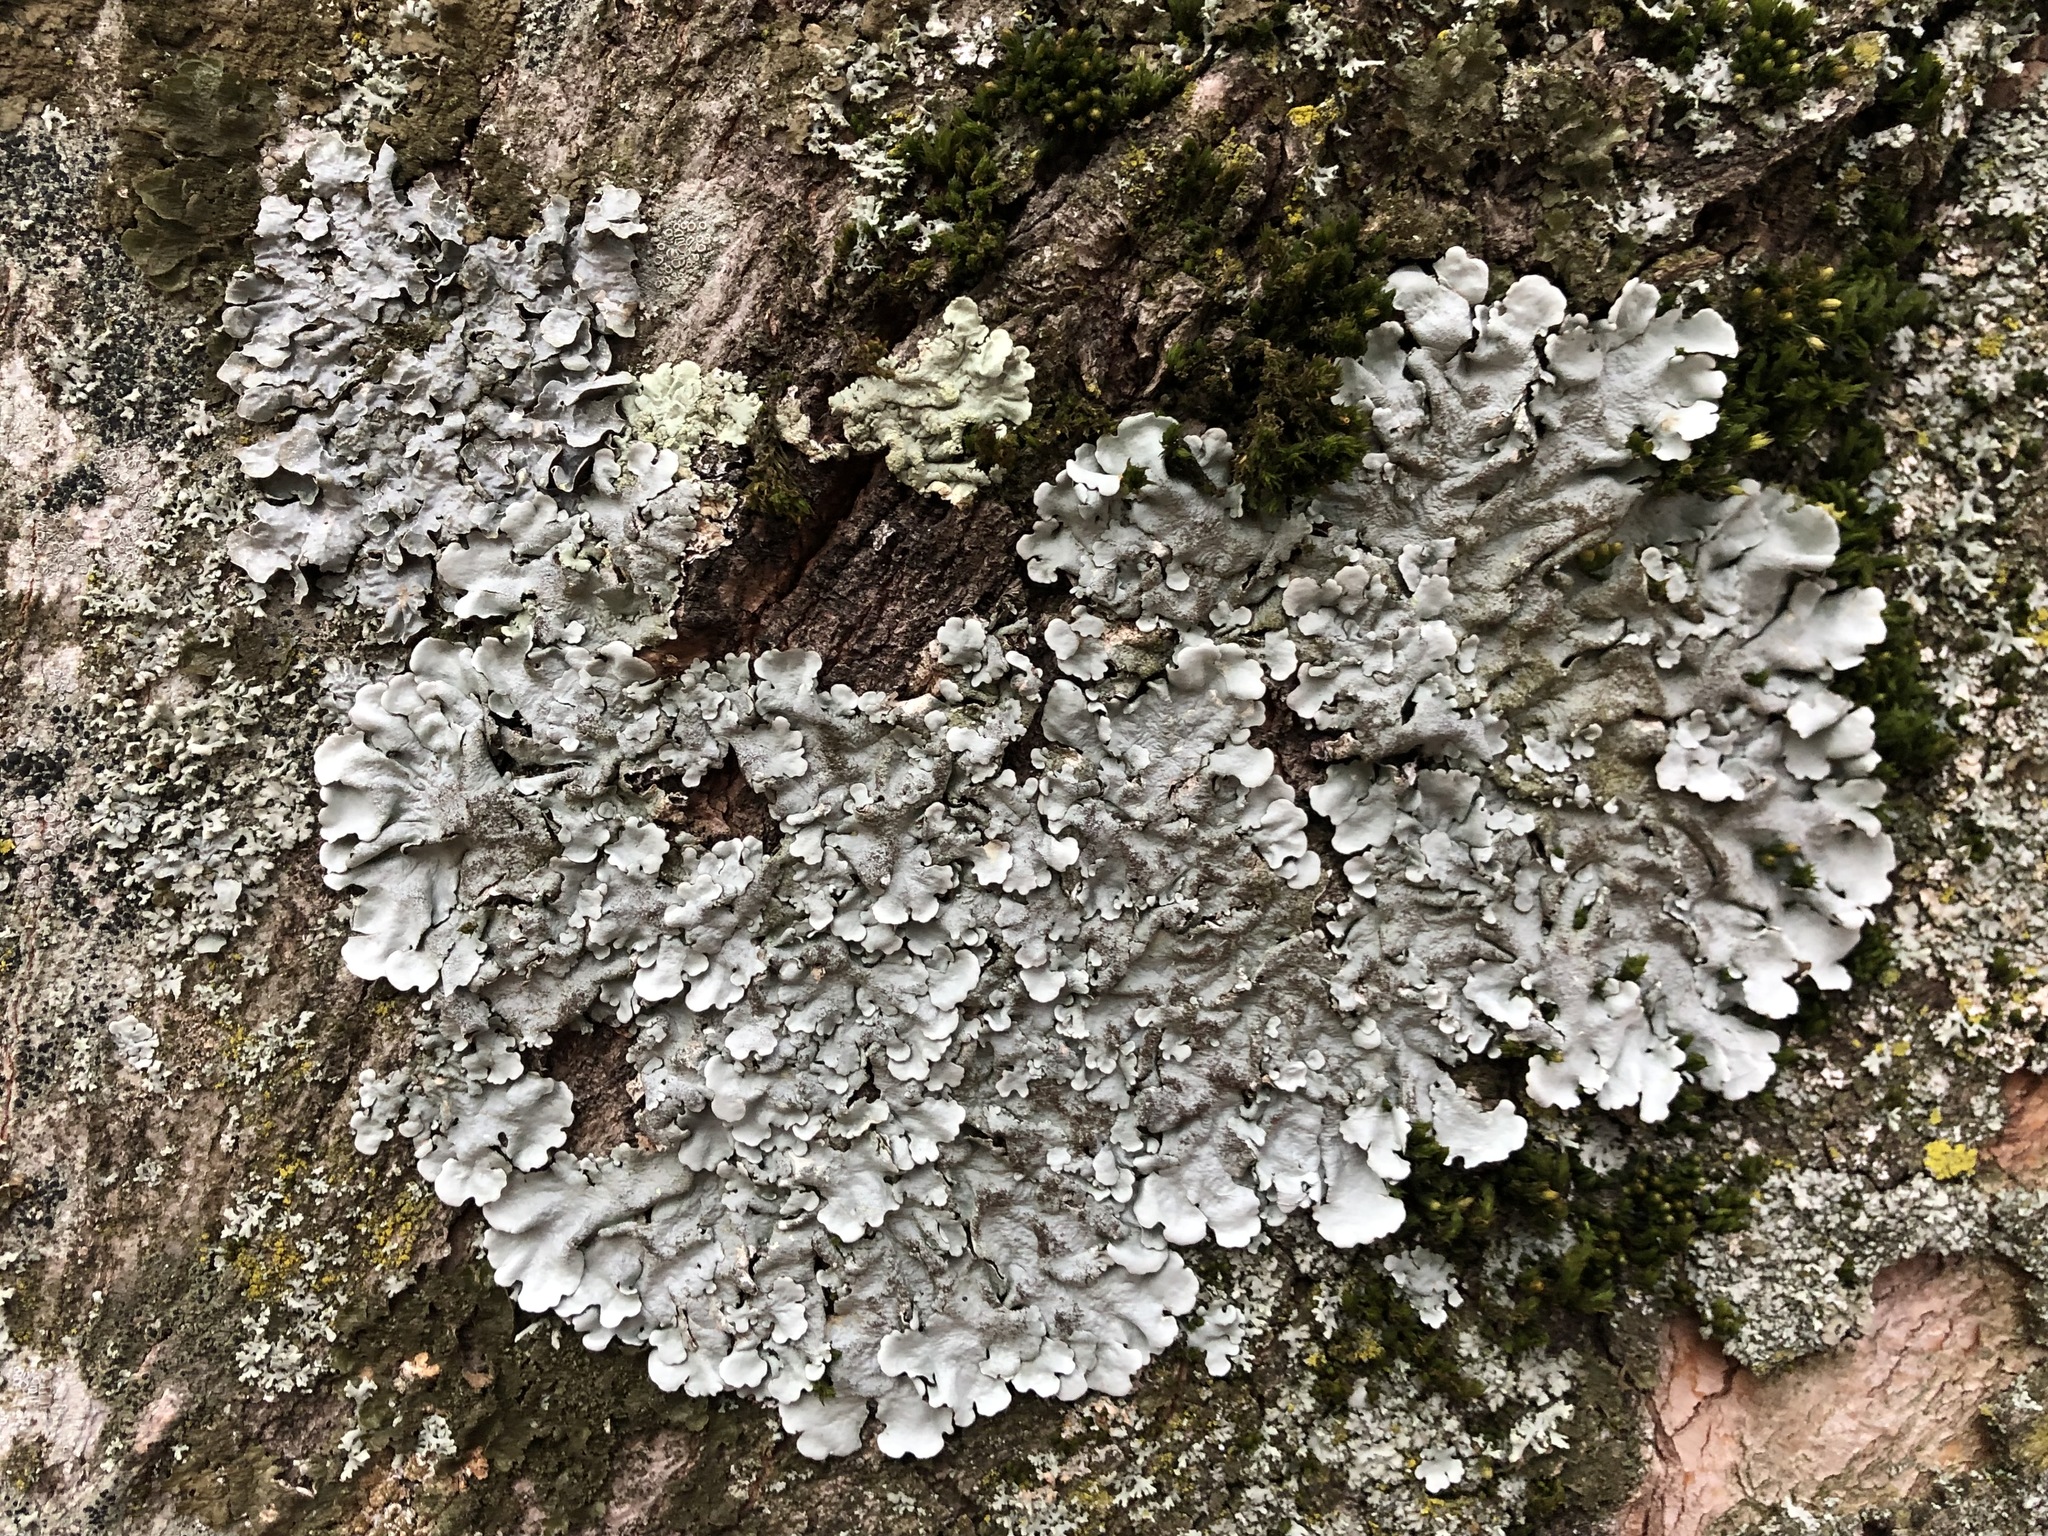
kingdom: Fungi
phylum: Ascomycota
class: Lecanoromycetes
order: Lecanorales
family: Parmeliaceae
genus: Parmelina
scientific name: Parmelina tiliacea
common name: Linden shield lichen
